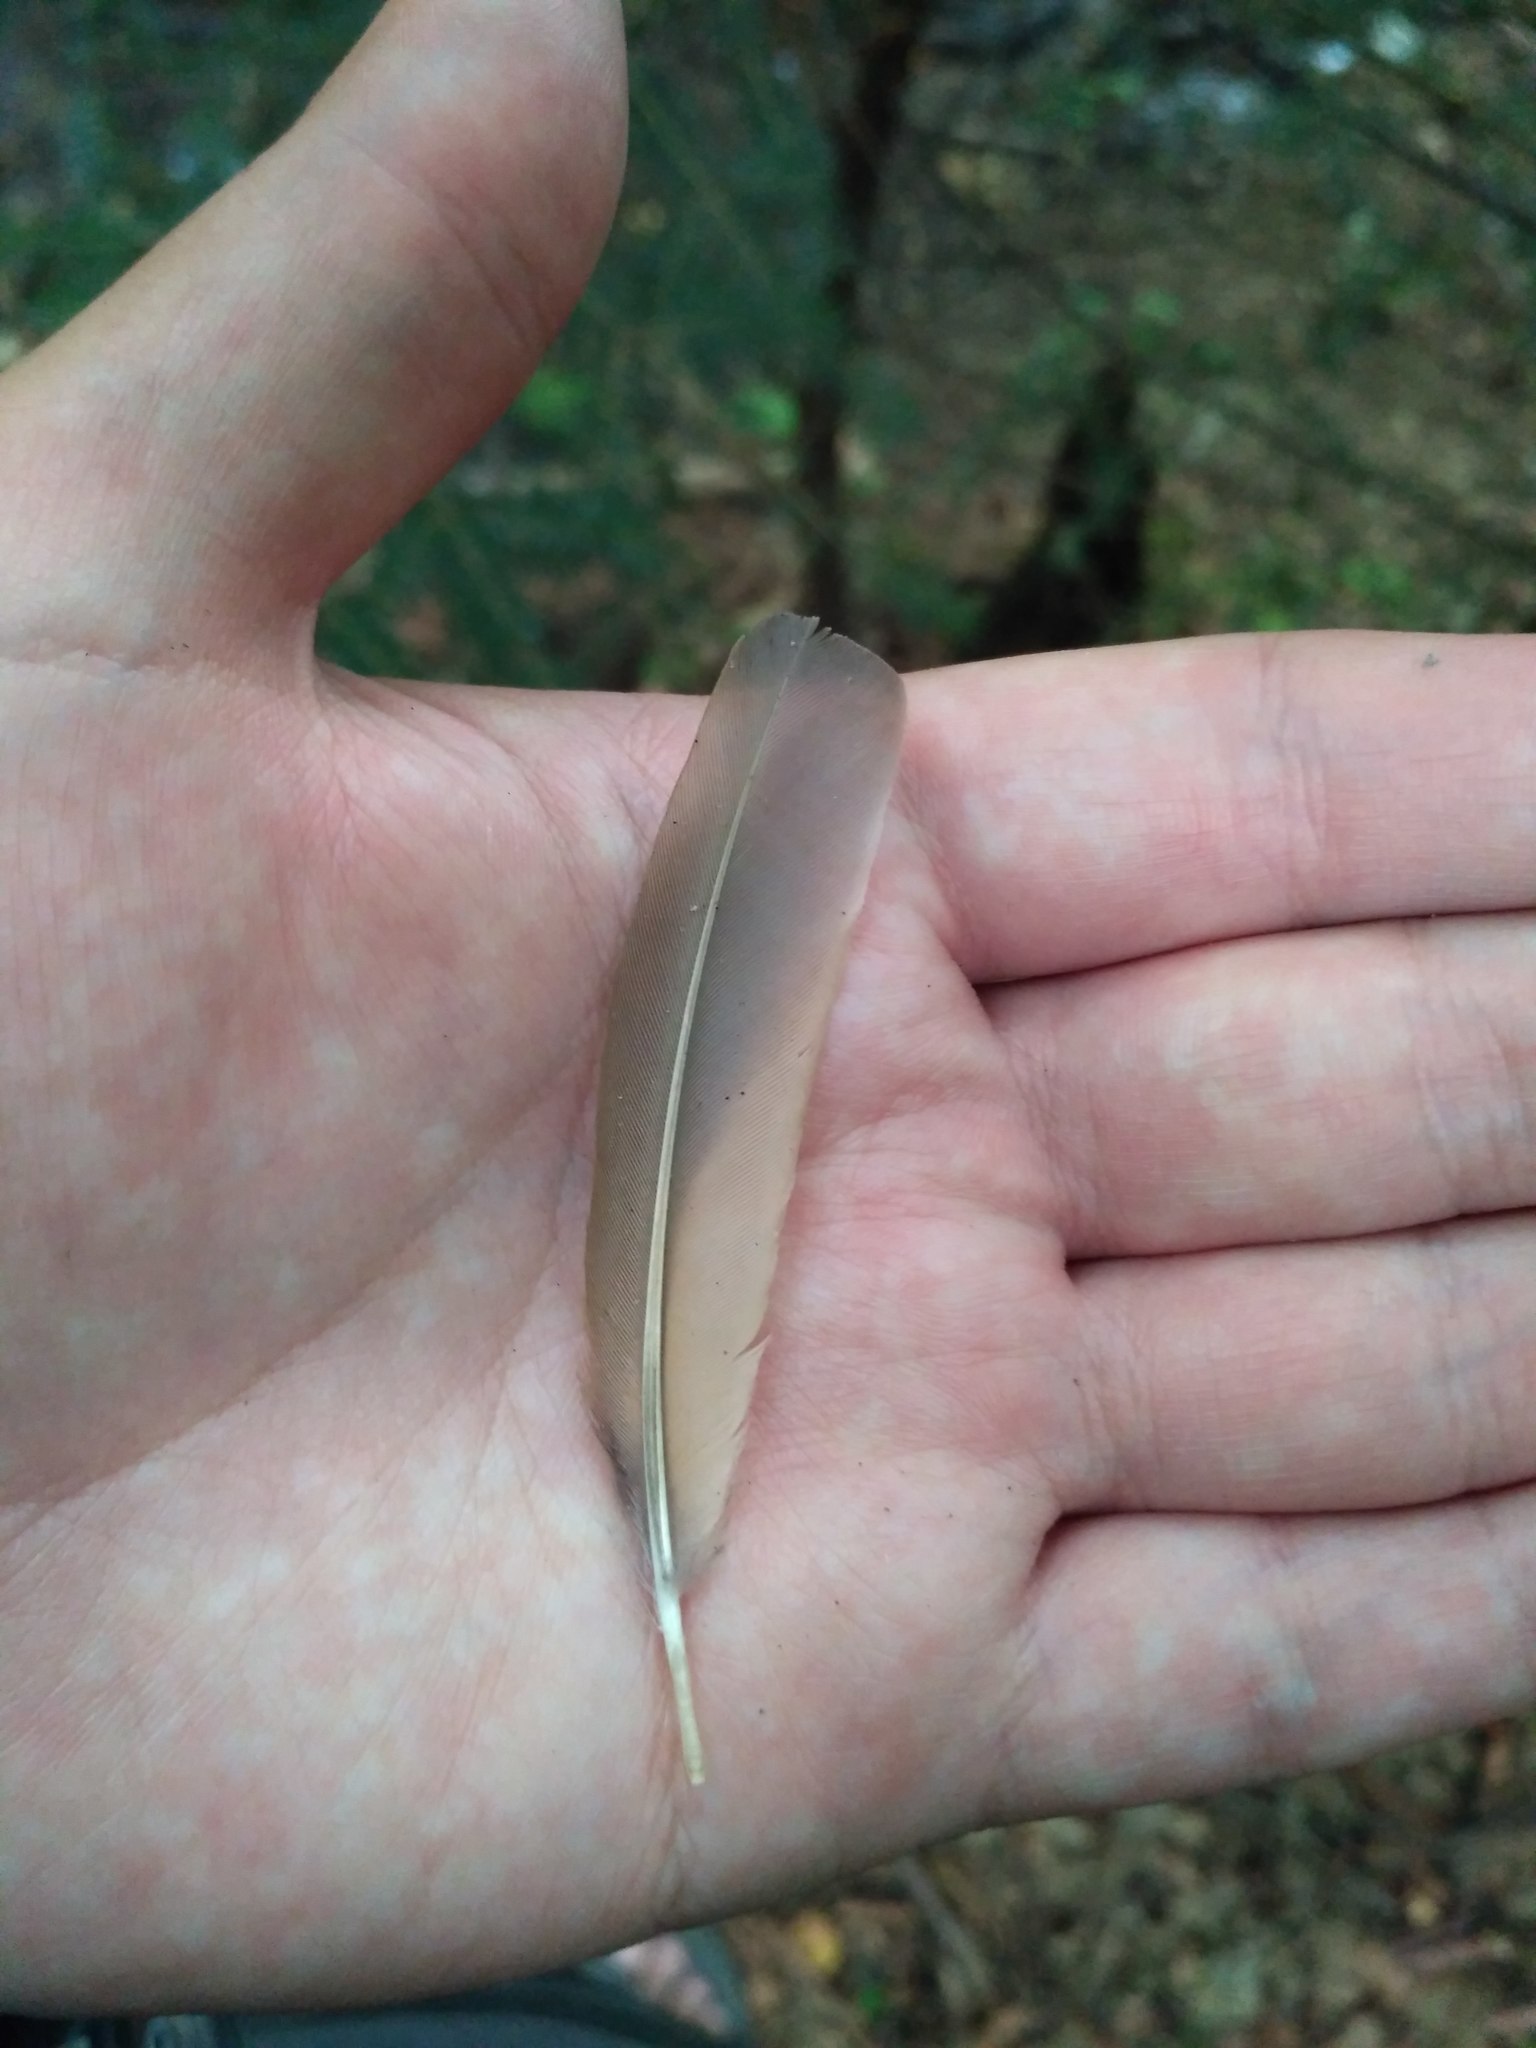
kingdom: Animalia
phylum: Chordata
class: Aves
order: Passeriformes
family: Turdidae
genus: Turdus
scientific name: Turdus philomelos
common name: Song thrush
